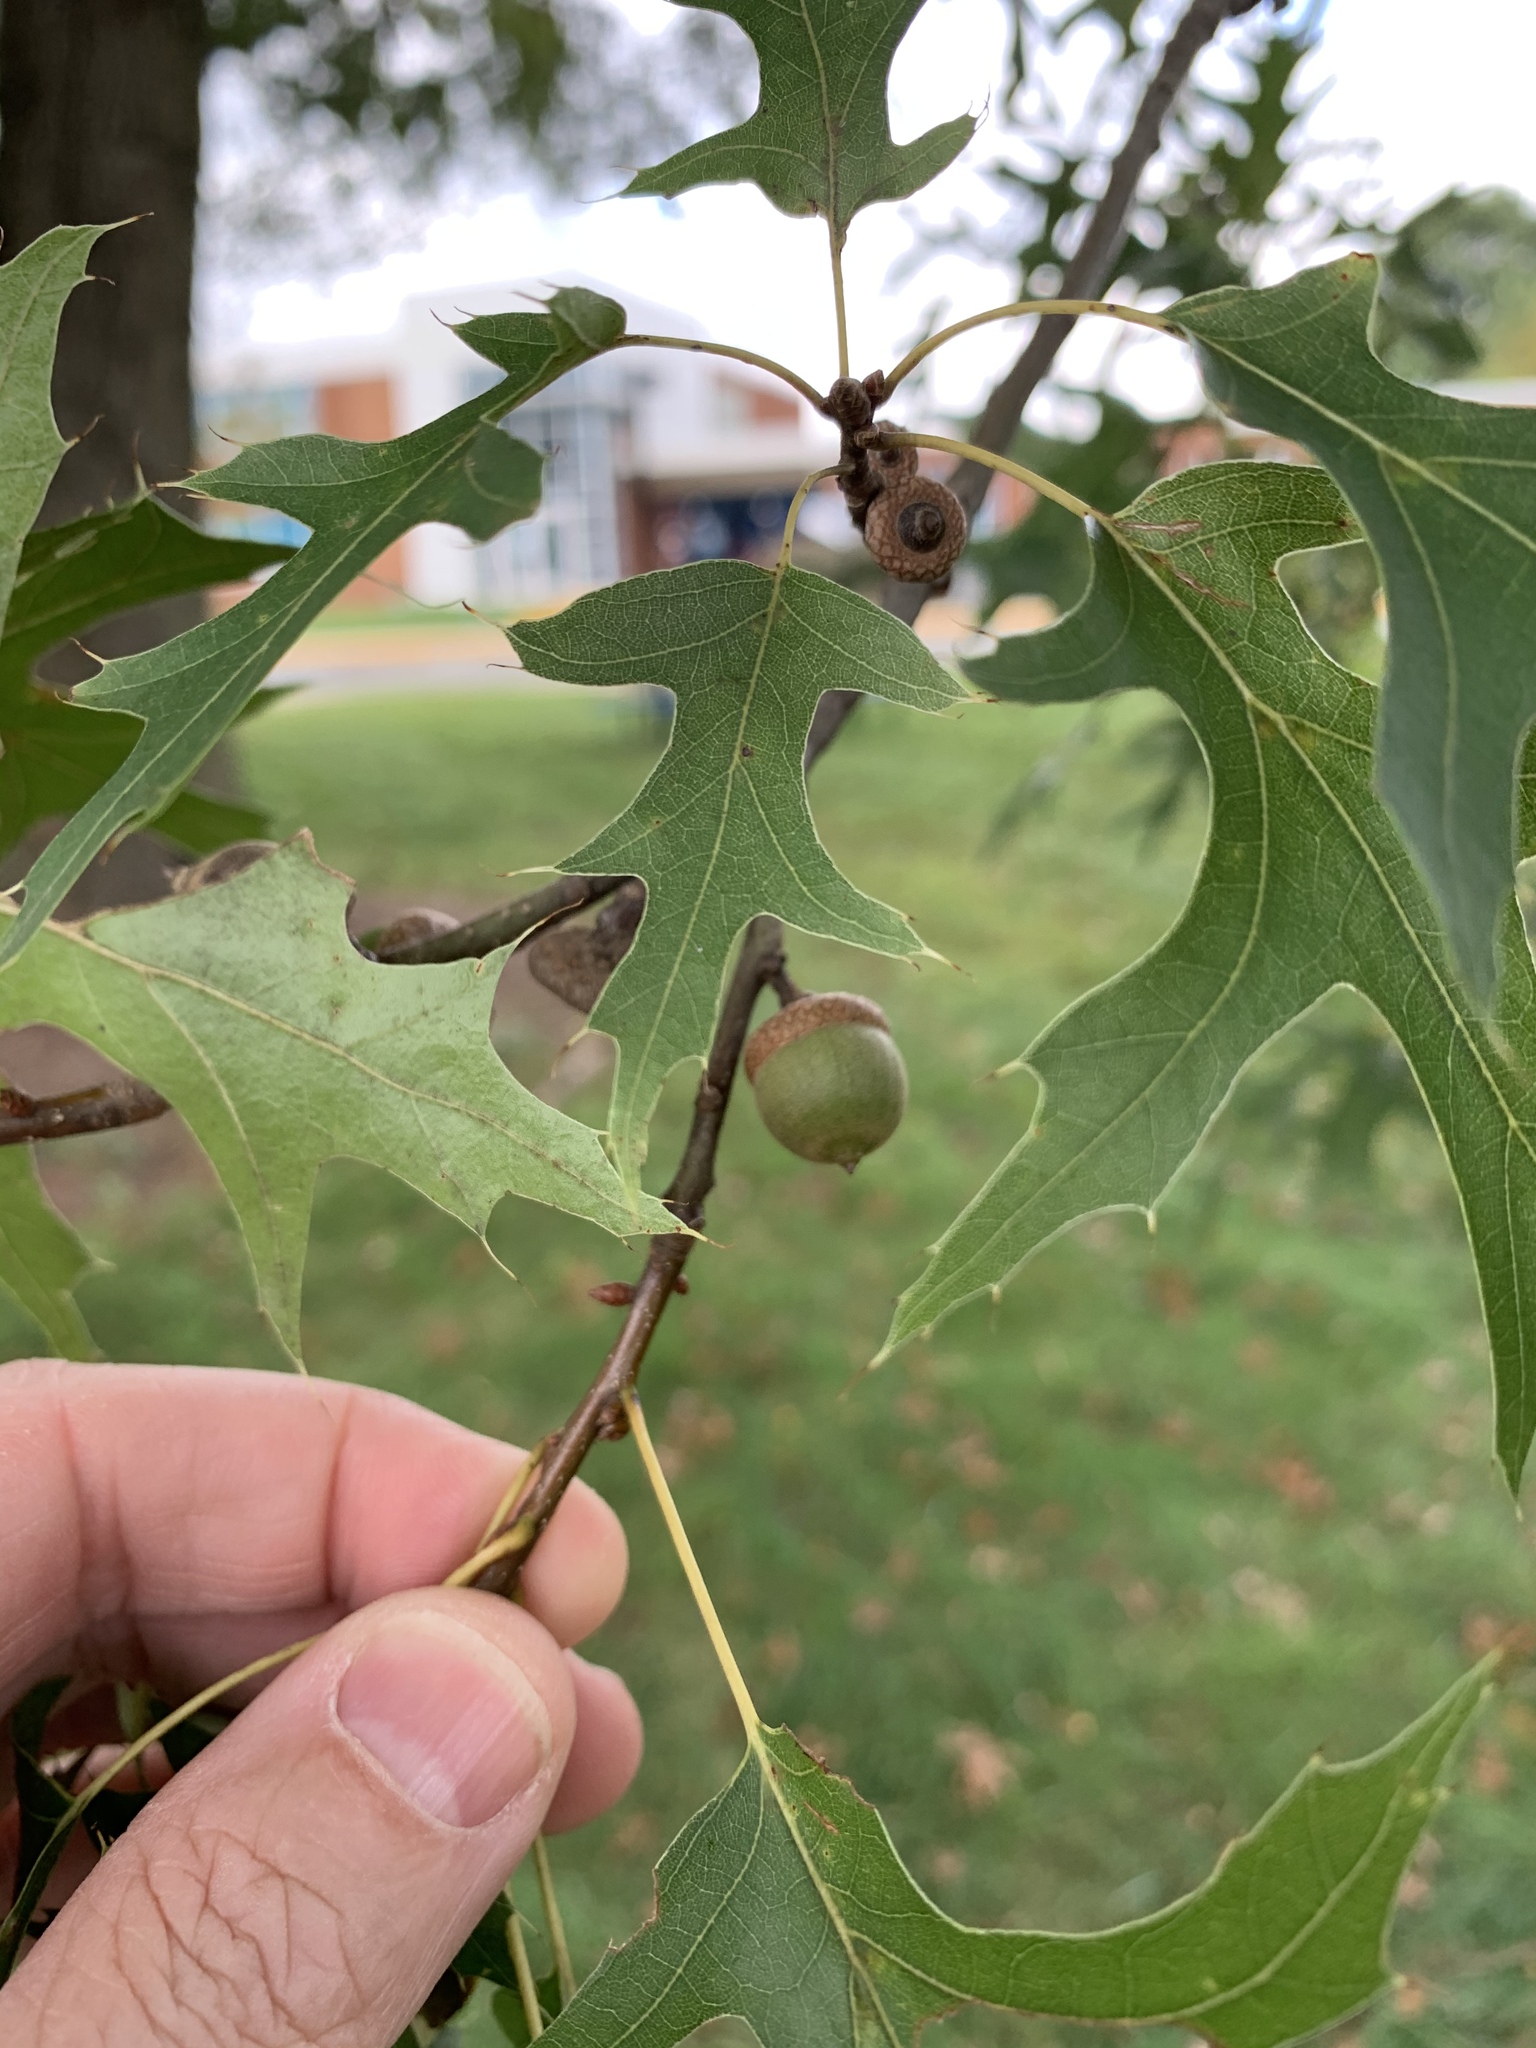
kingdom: Plantae
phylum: Tracheophyta
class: Magnoliopsida
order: Fagales
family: Fagaceae
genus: Quercus
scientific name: Quercus palustris
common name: Pin oak
